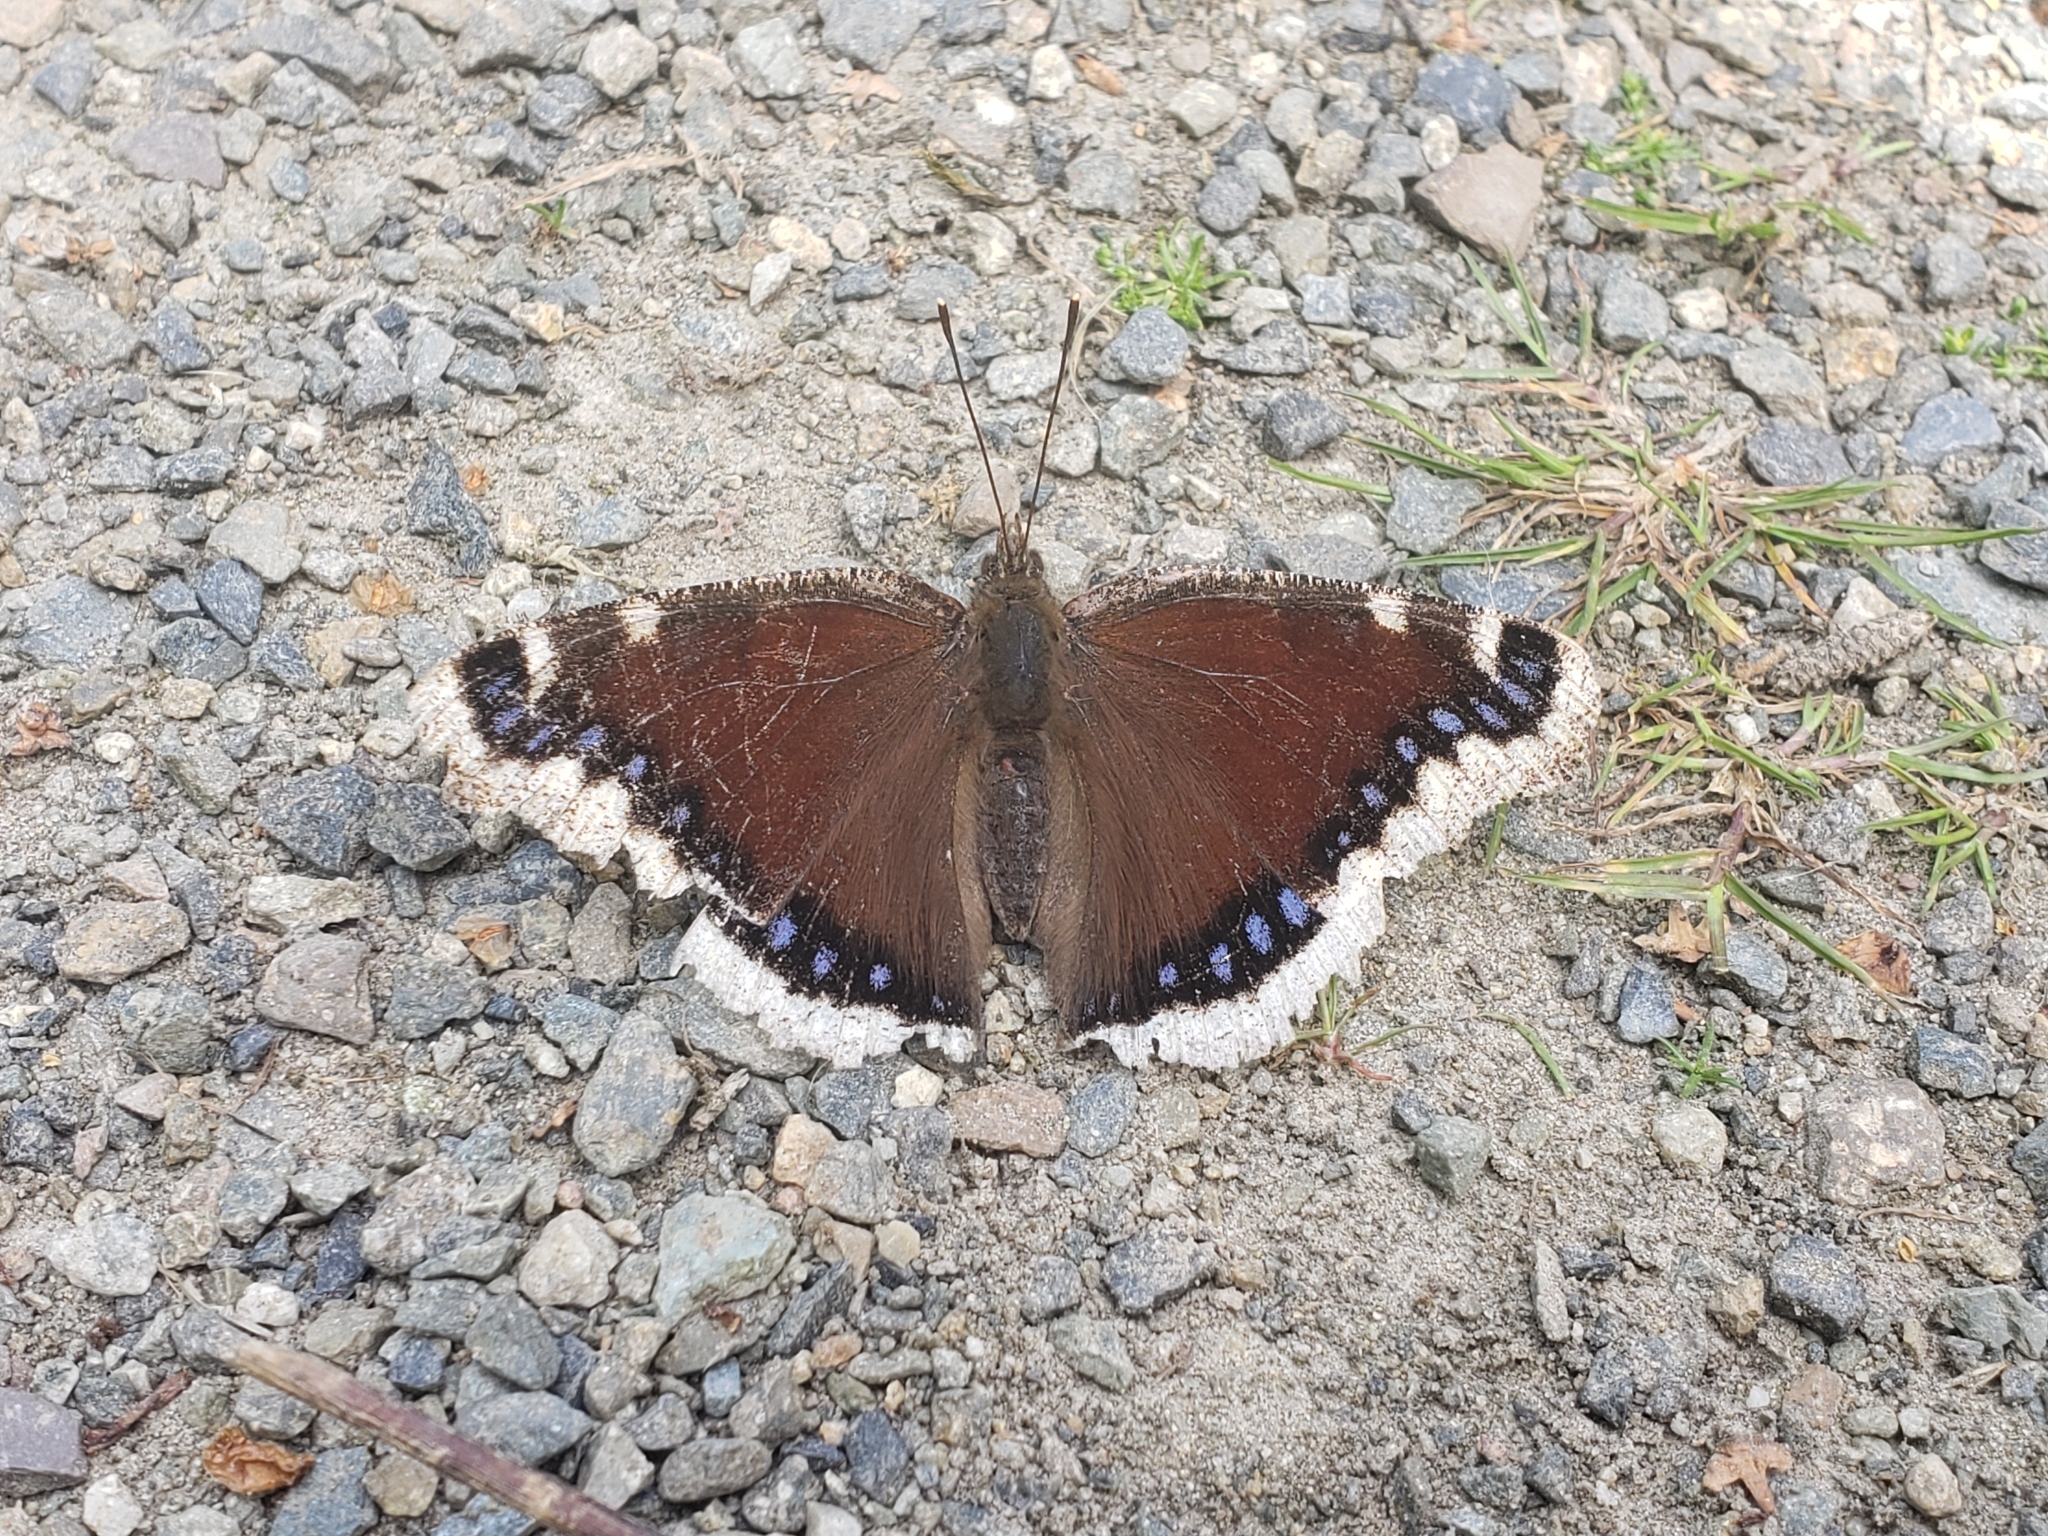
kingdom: Animalia
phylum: Arthropoda
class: Insecta
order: Lepidoptera
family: Nymphalidae
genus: Nymphalis
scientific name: Nymphalis antiopa
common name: Camberwell beauty
